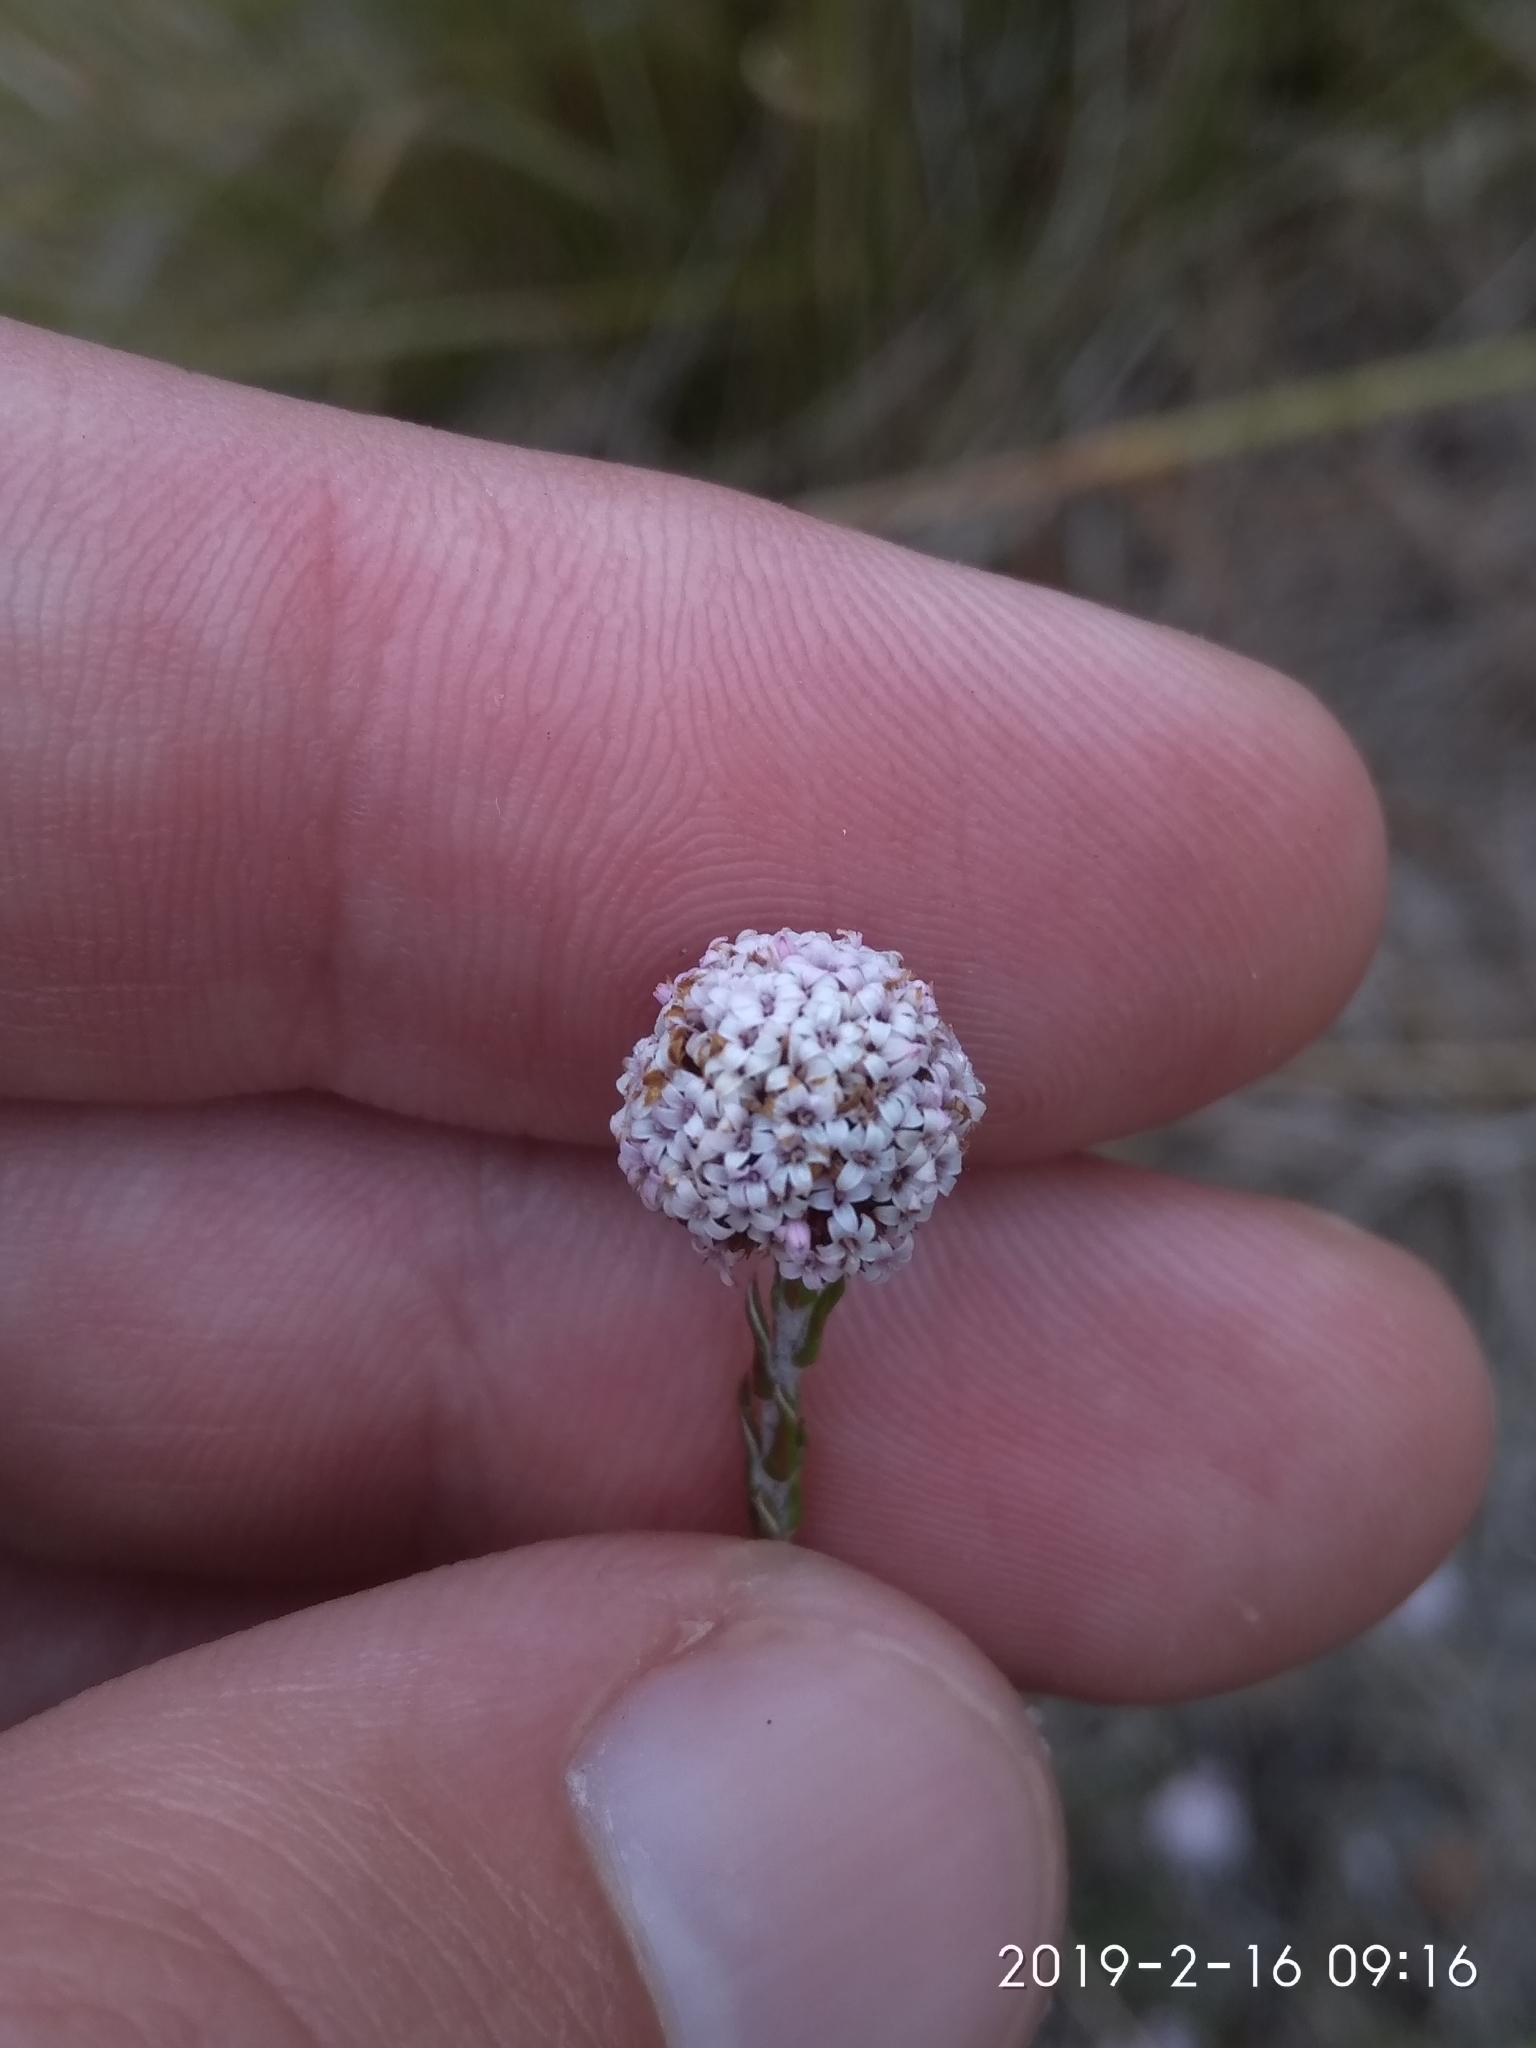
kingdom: Plantae
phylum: Tracheophyta
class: Magnoliopsida
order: Asterales
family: Asteraceae
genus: Stoebe
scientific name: Stoebe capitata
